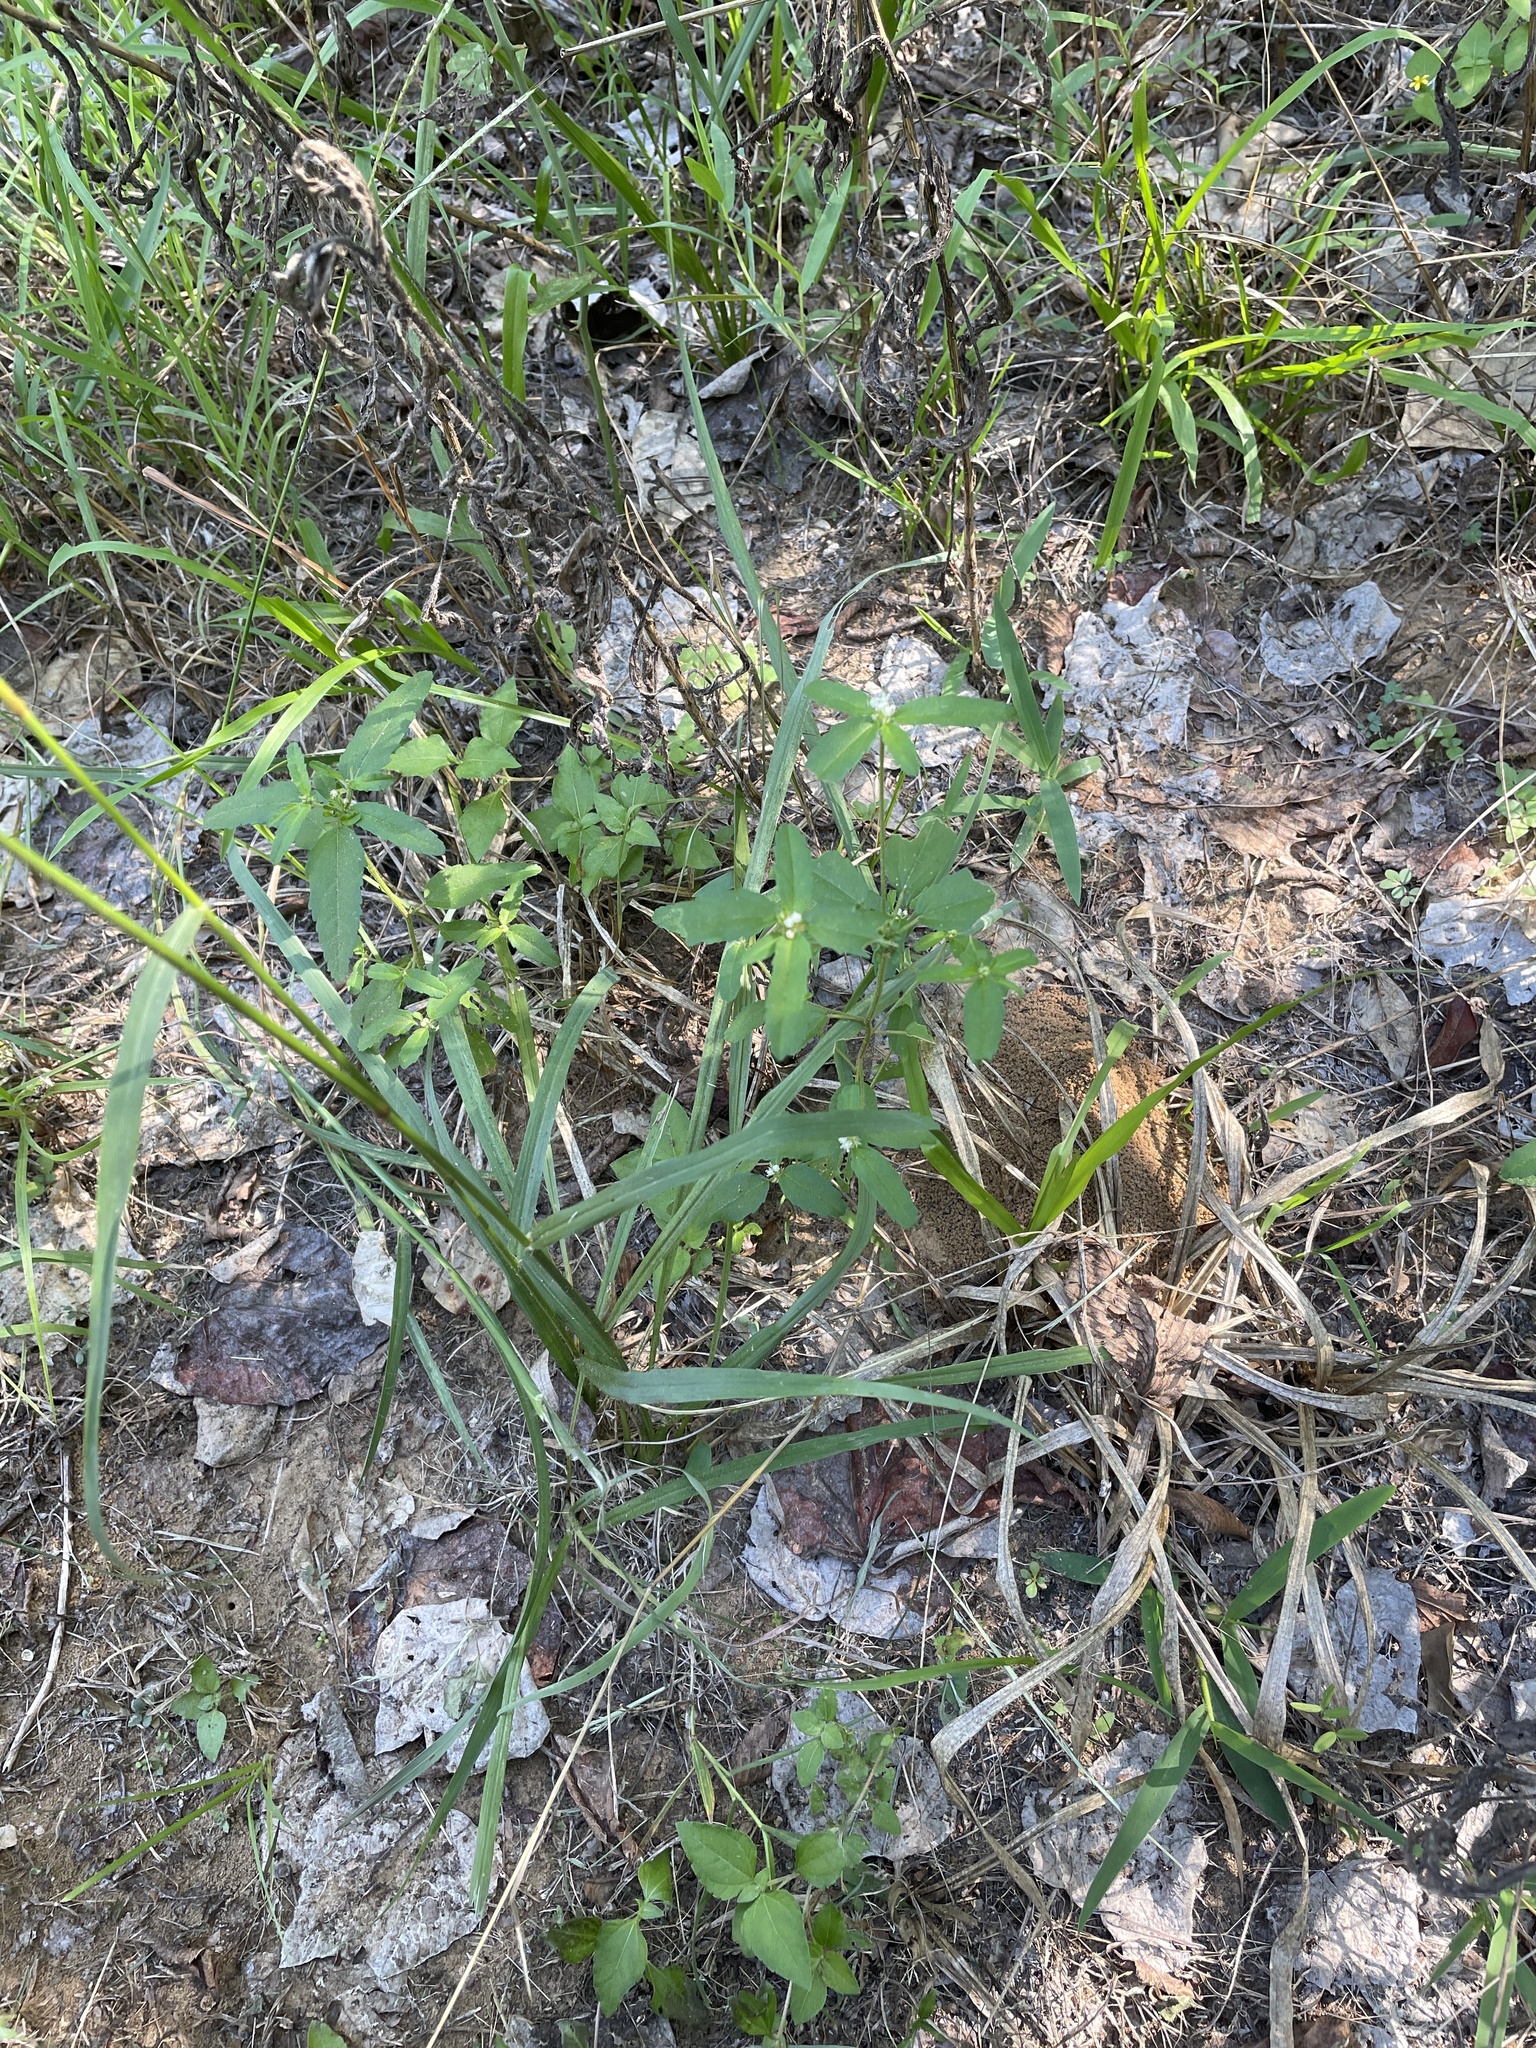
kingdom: Plantae
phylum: Tracheophyta
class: Magnoliopsida
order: Malpighiales
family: Euphorbiaceae
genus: Croton
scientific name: Croton glandulosus
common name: Tropic croton
